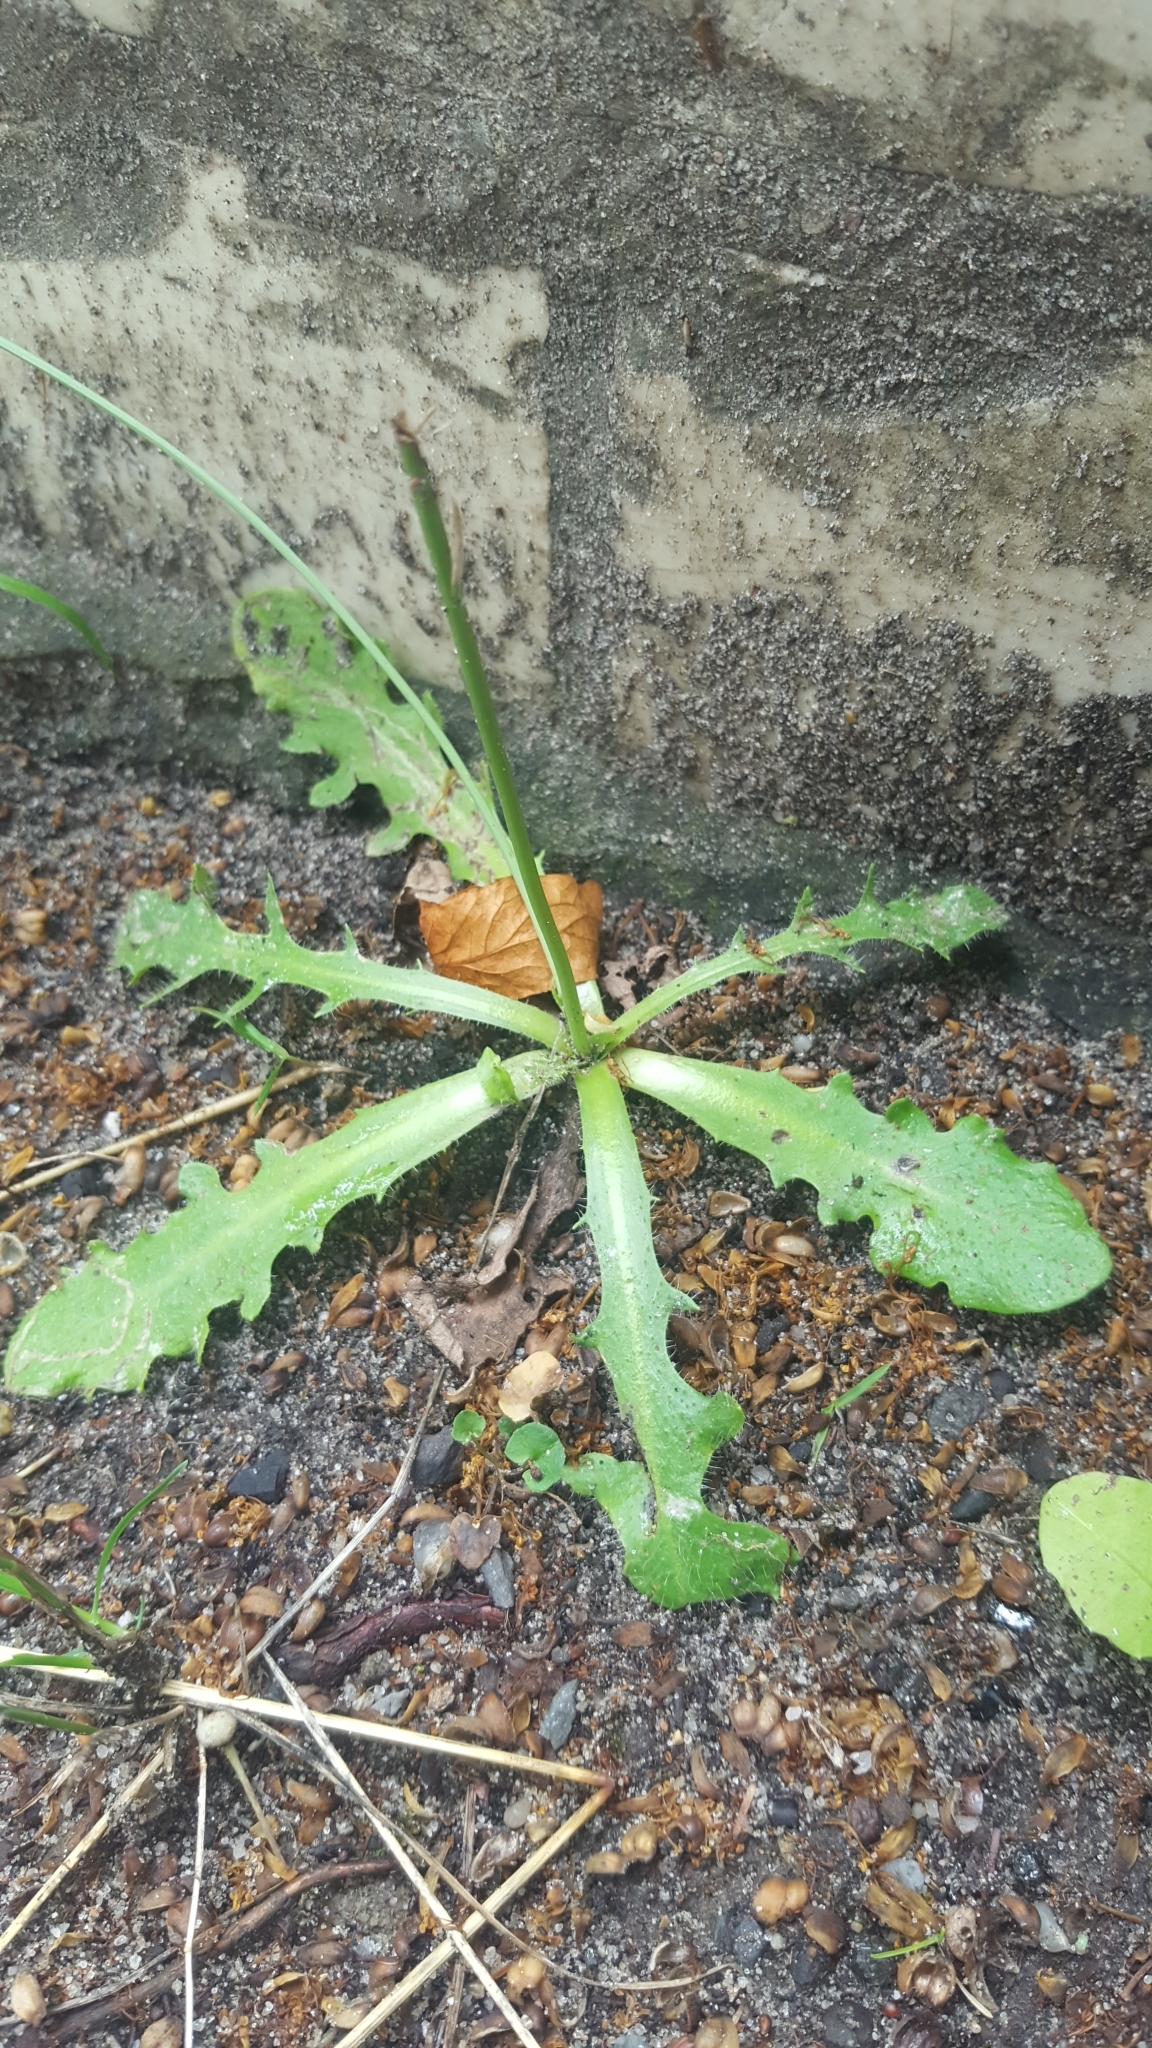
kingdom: Plantae
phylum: Tracheophyta
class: Magnoliopsida
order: Asterales
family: Asteraceae
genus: Hypochaeris
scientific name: Hypochaeris radicata
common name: Flatweed
